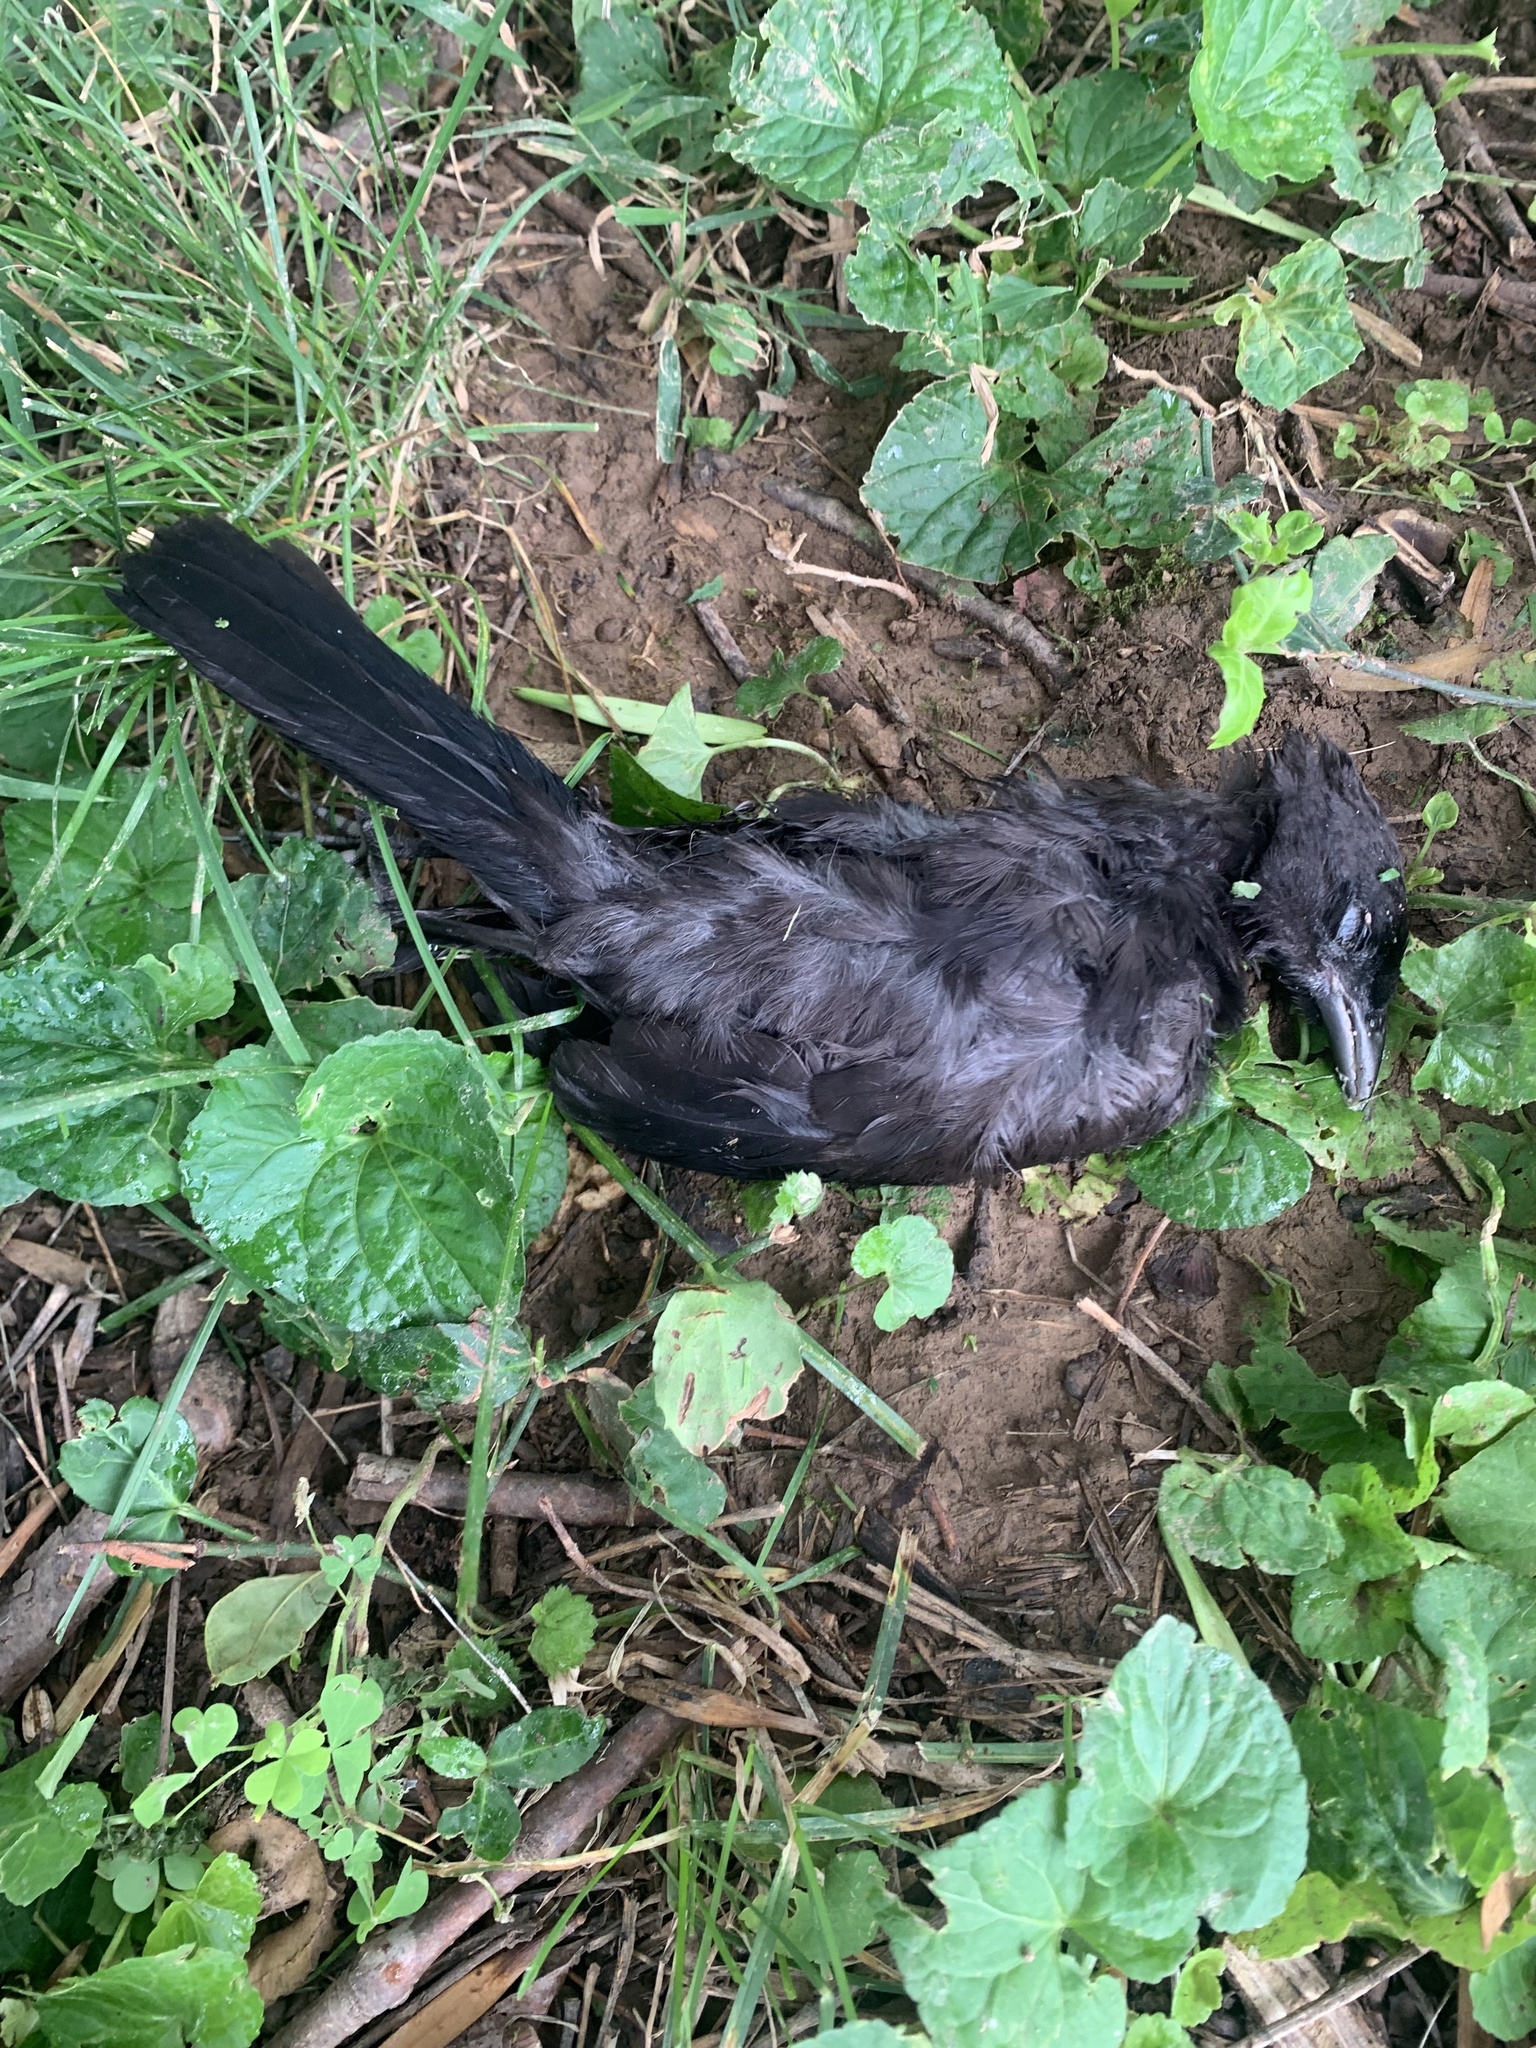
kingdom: Animalia
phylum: Chordata
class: Aves
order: Passeriformes
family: Icteridae
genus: Quiscalus
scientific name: Quiscalus quiscula
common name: Common grackle
